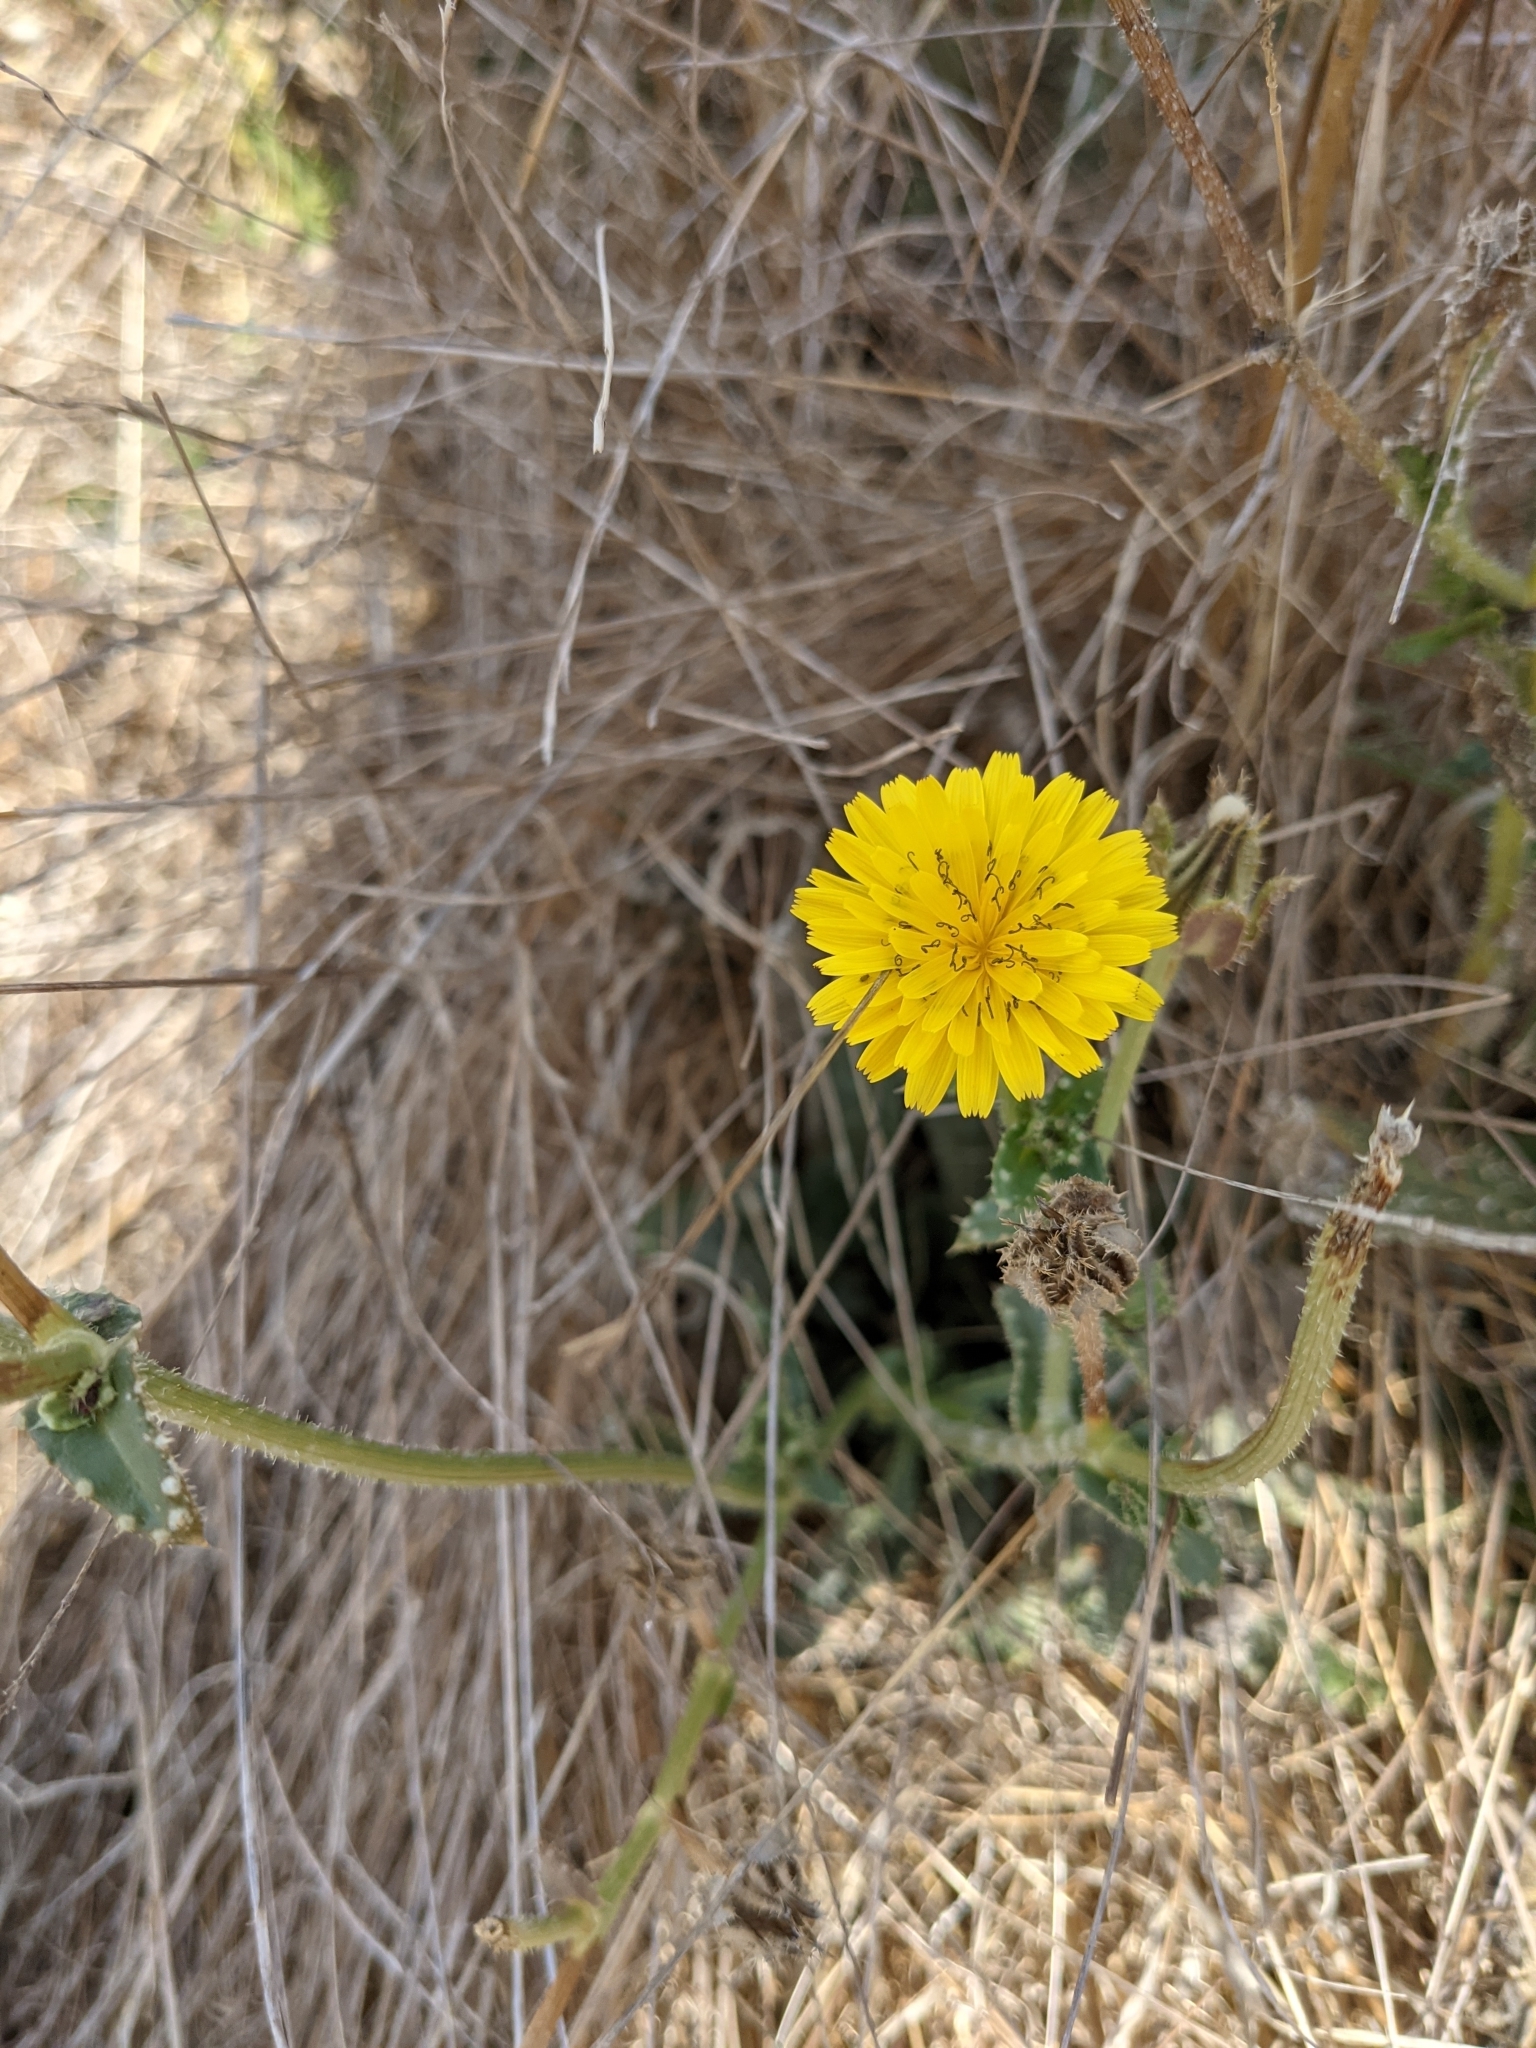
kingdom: Plantae
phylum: Tracheophyta
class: Magnoliopsida
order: Asterales
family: Asteraceae
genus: Helminthotheca
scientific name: Helminthotheca echioides
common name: Ox-tongue
